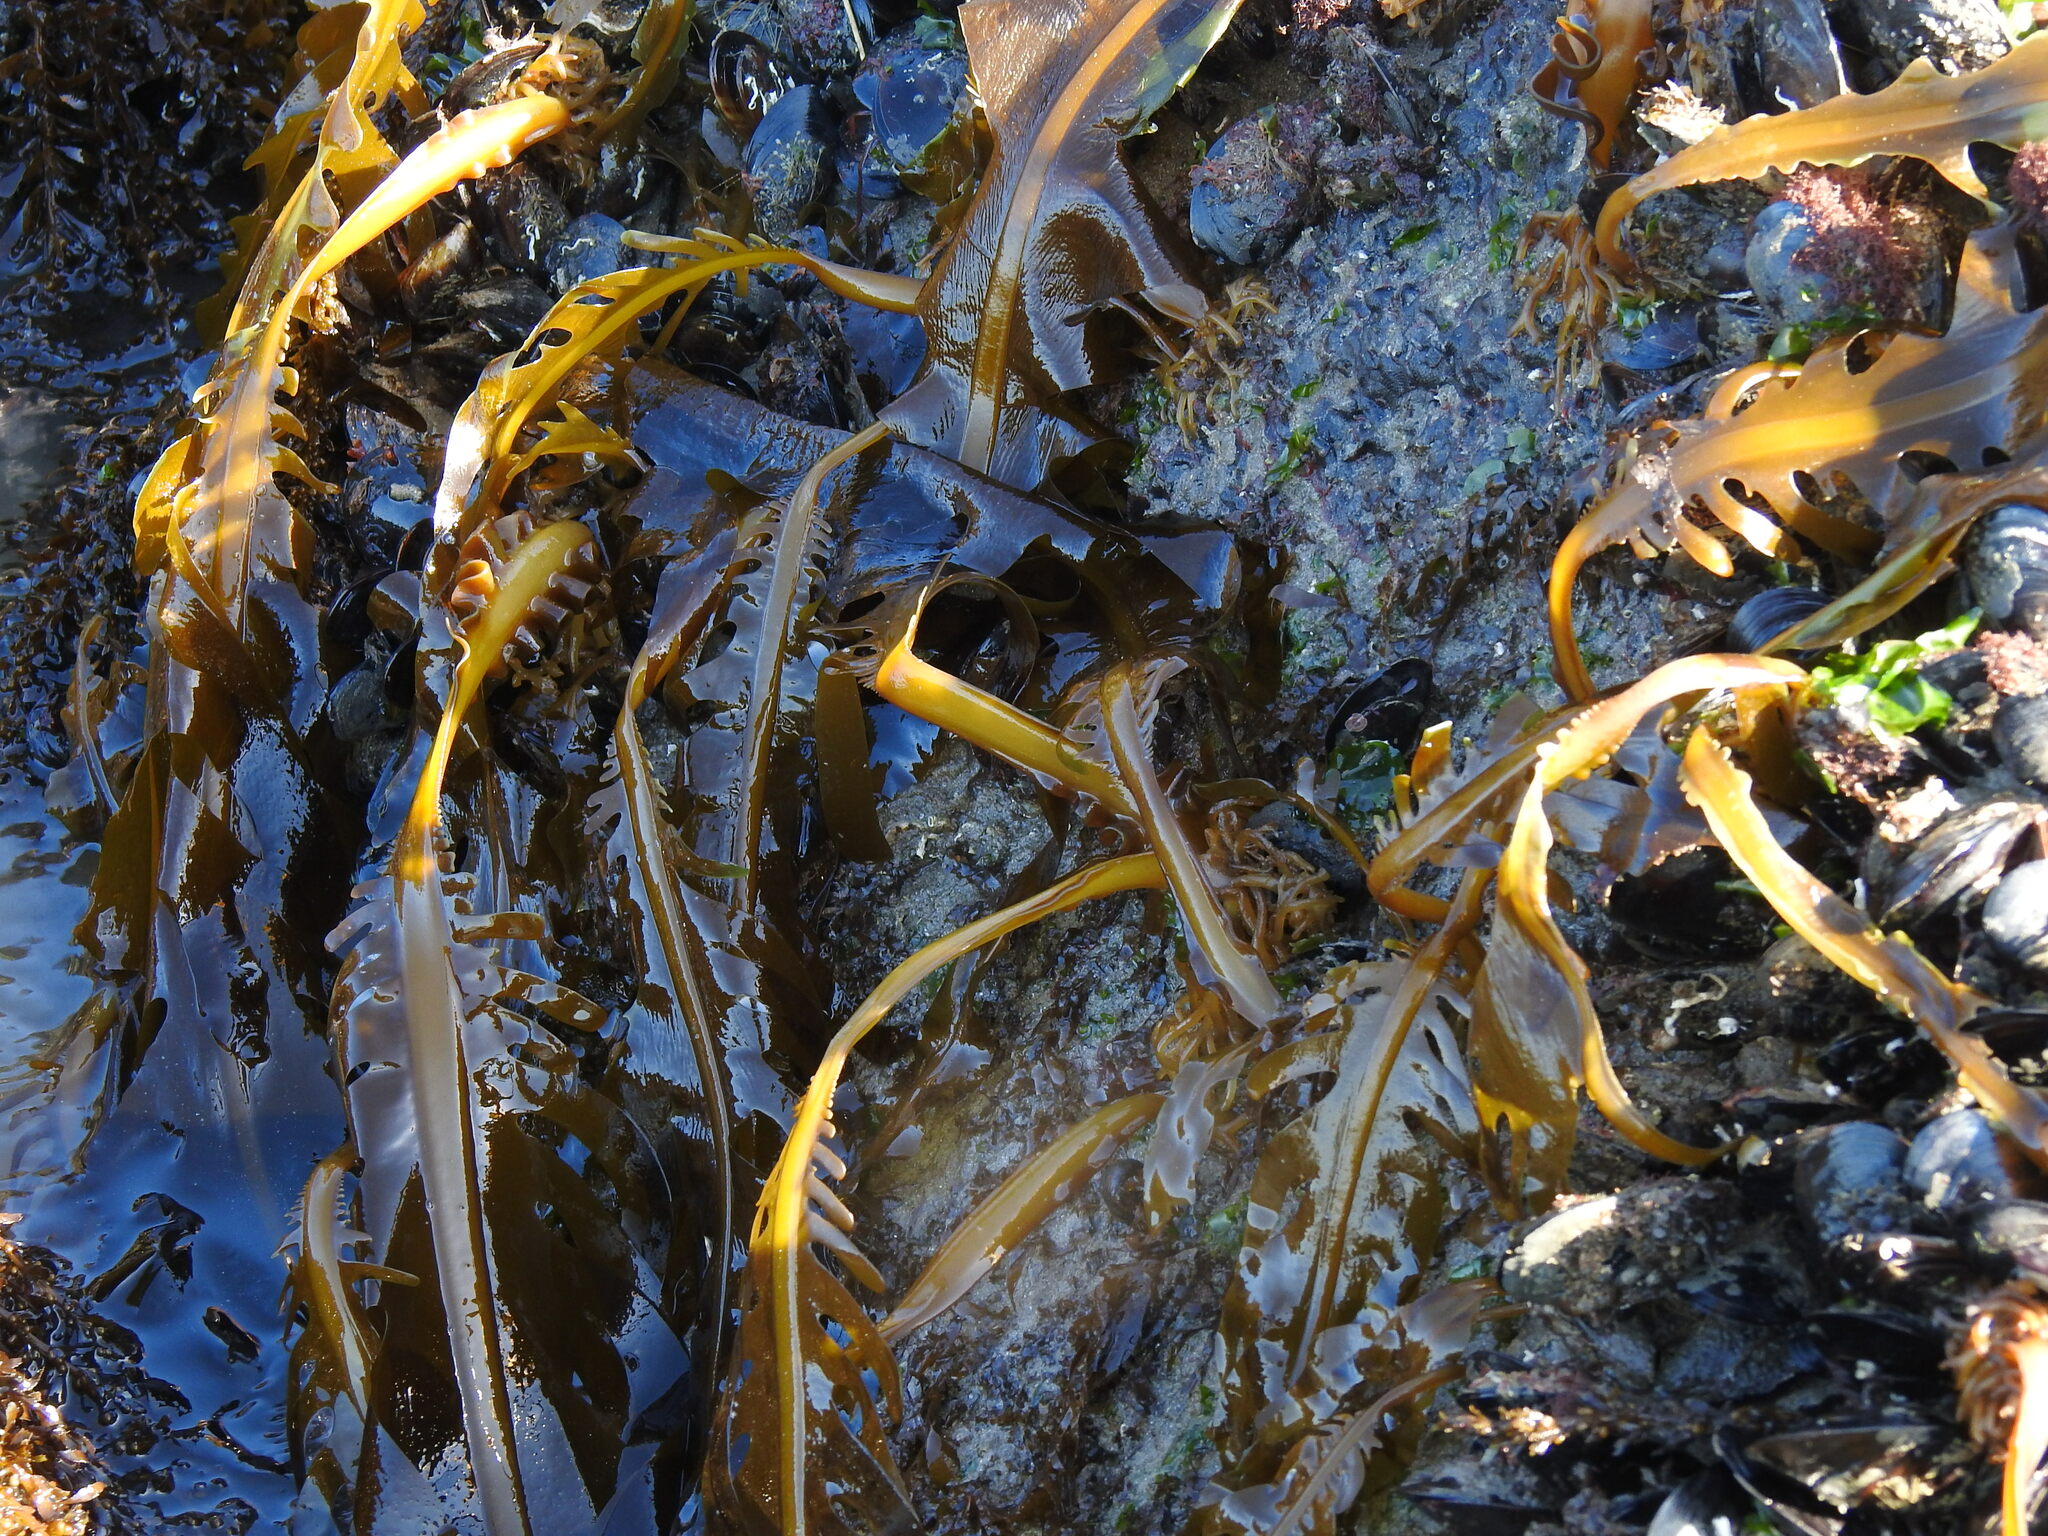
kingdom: Chromista
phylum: Ochrophyta
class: Phaeophyceae
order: Laminariales
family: Alariaceae
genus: Undaria
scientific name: Undaria pinnatifida
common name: Asian kelp
